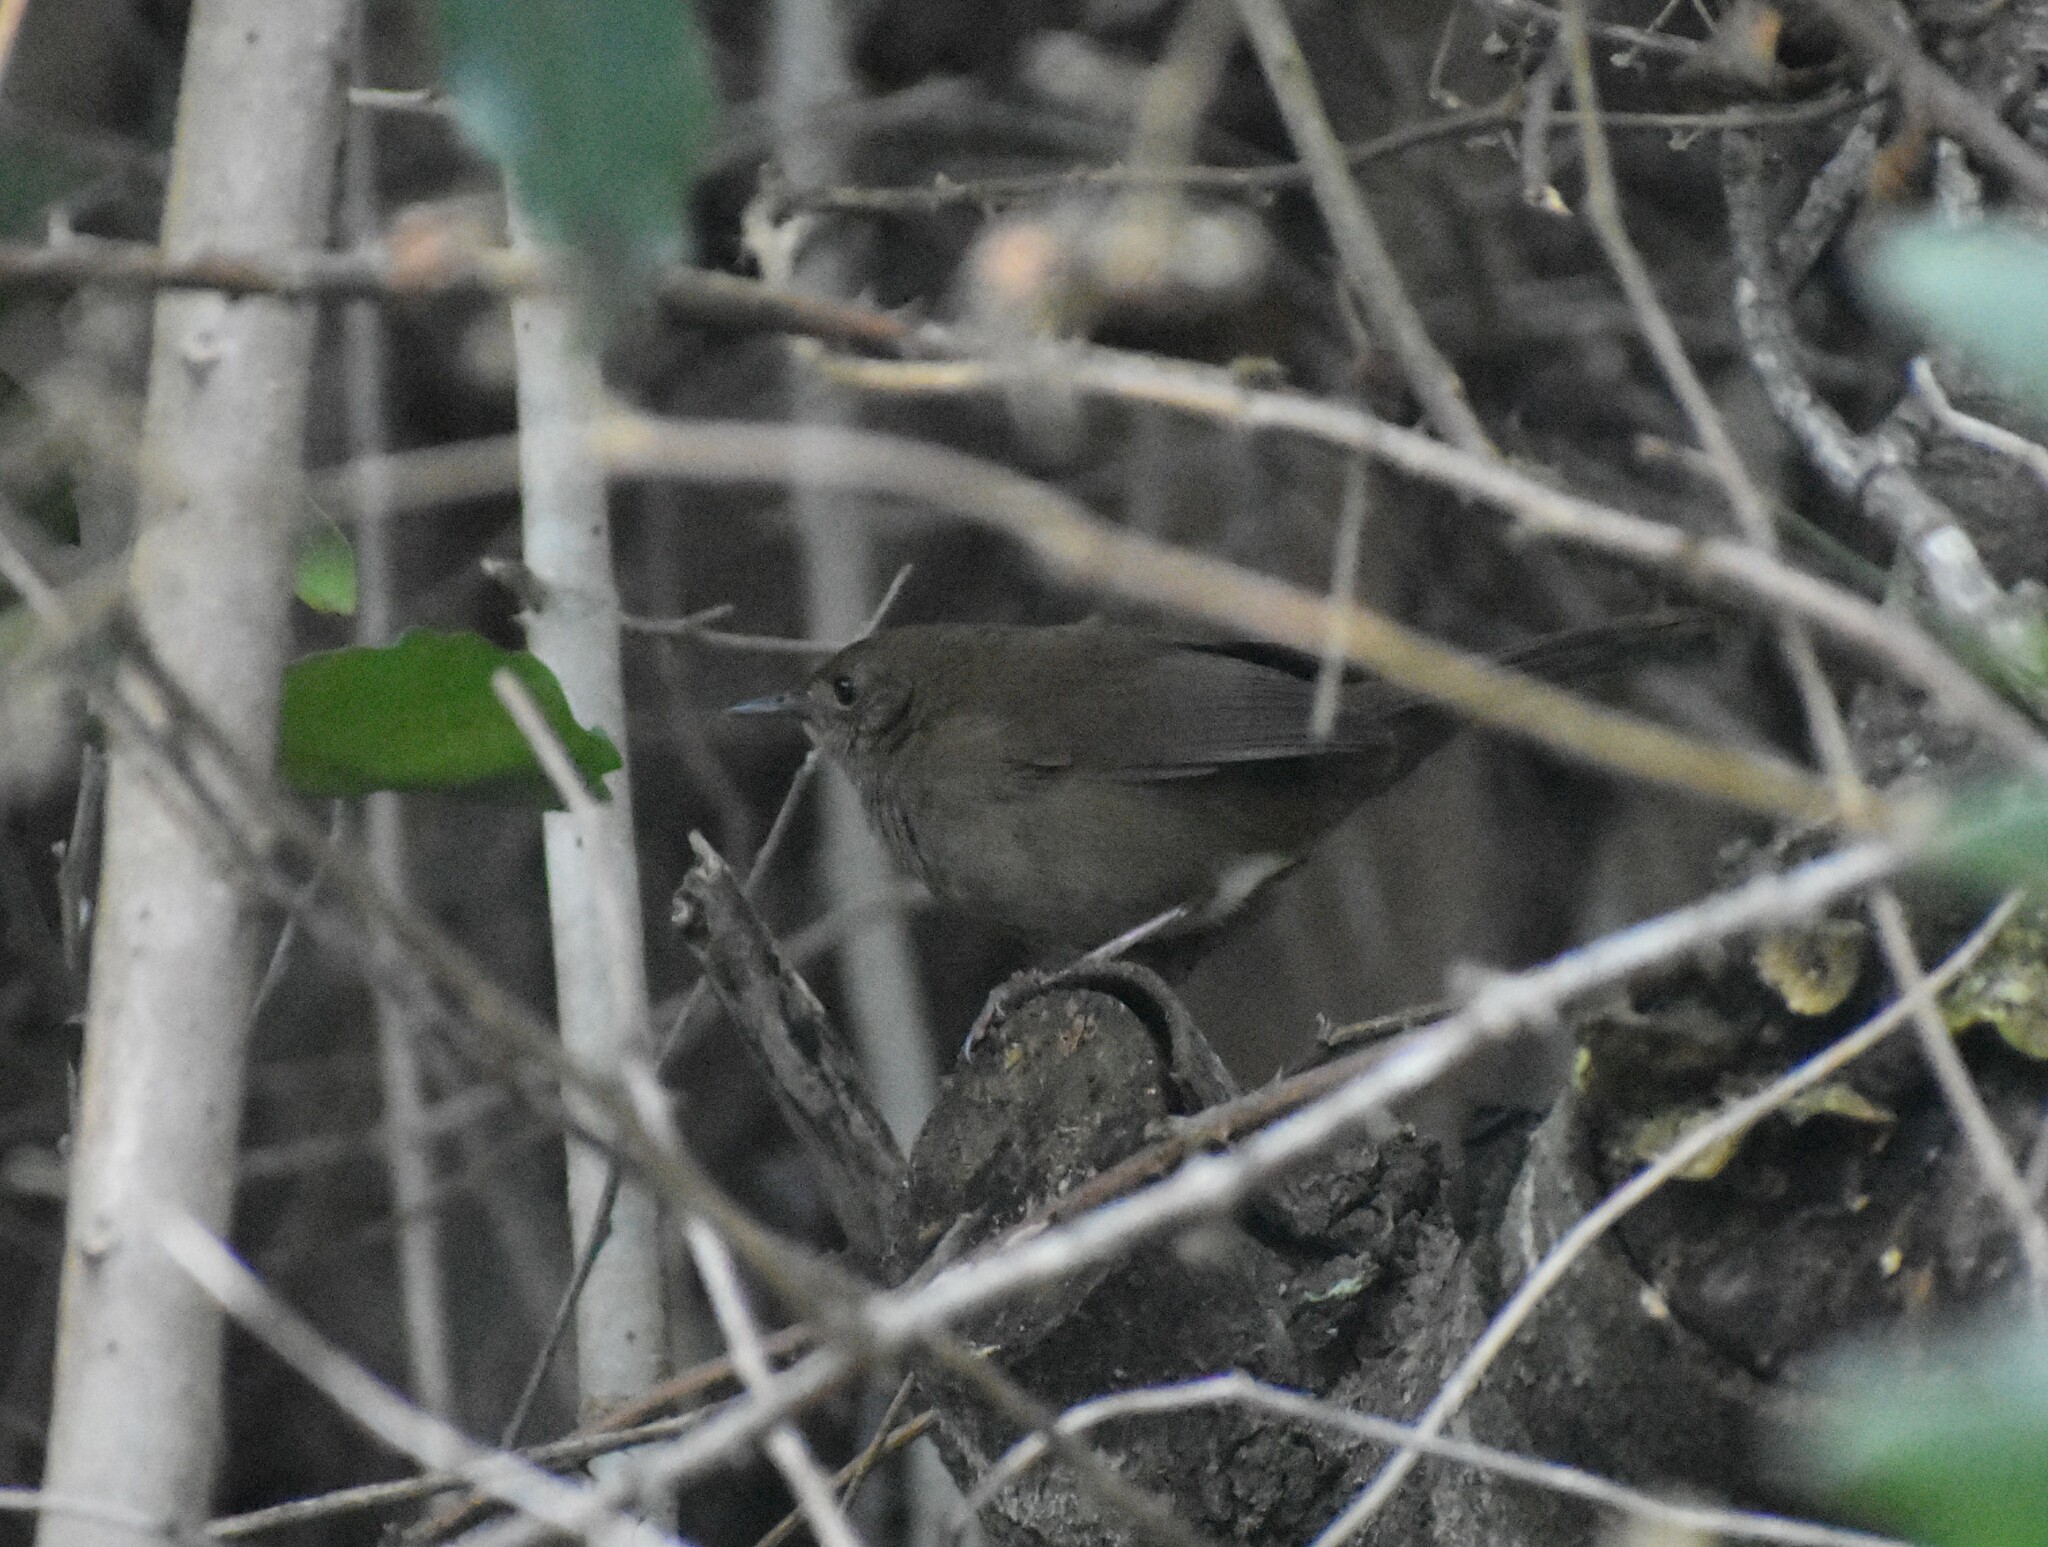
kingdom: Animalia
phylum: Chordata
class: Aves
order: Passeriformes
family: Locustellidae
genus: Bradypterus
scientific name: Bradypterus sylvaticus
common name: Knysna warbler
